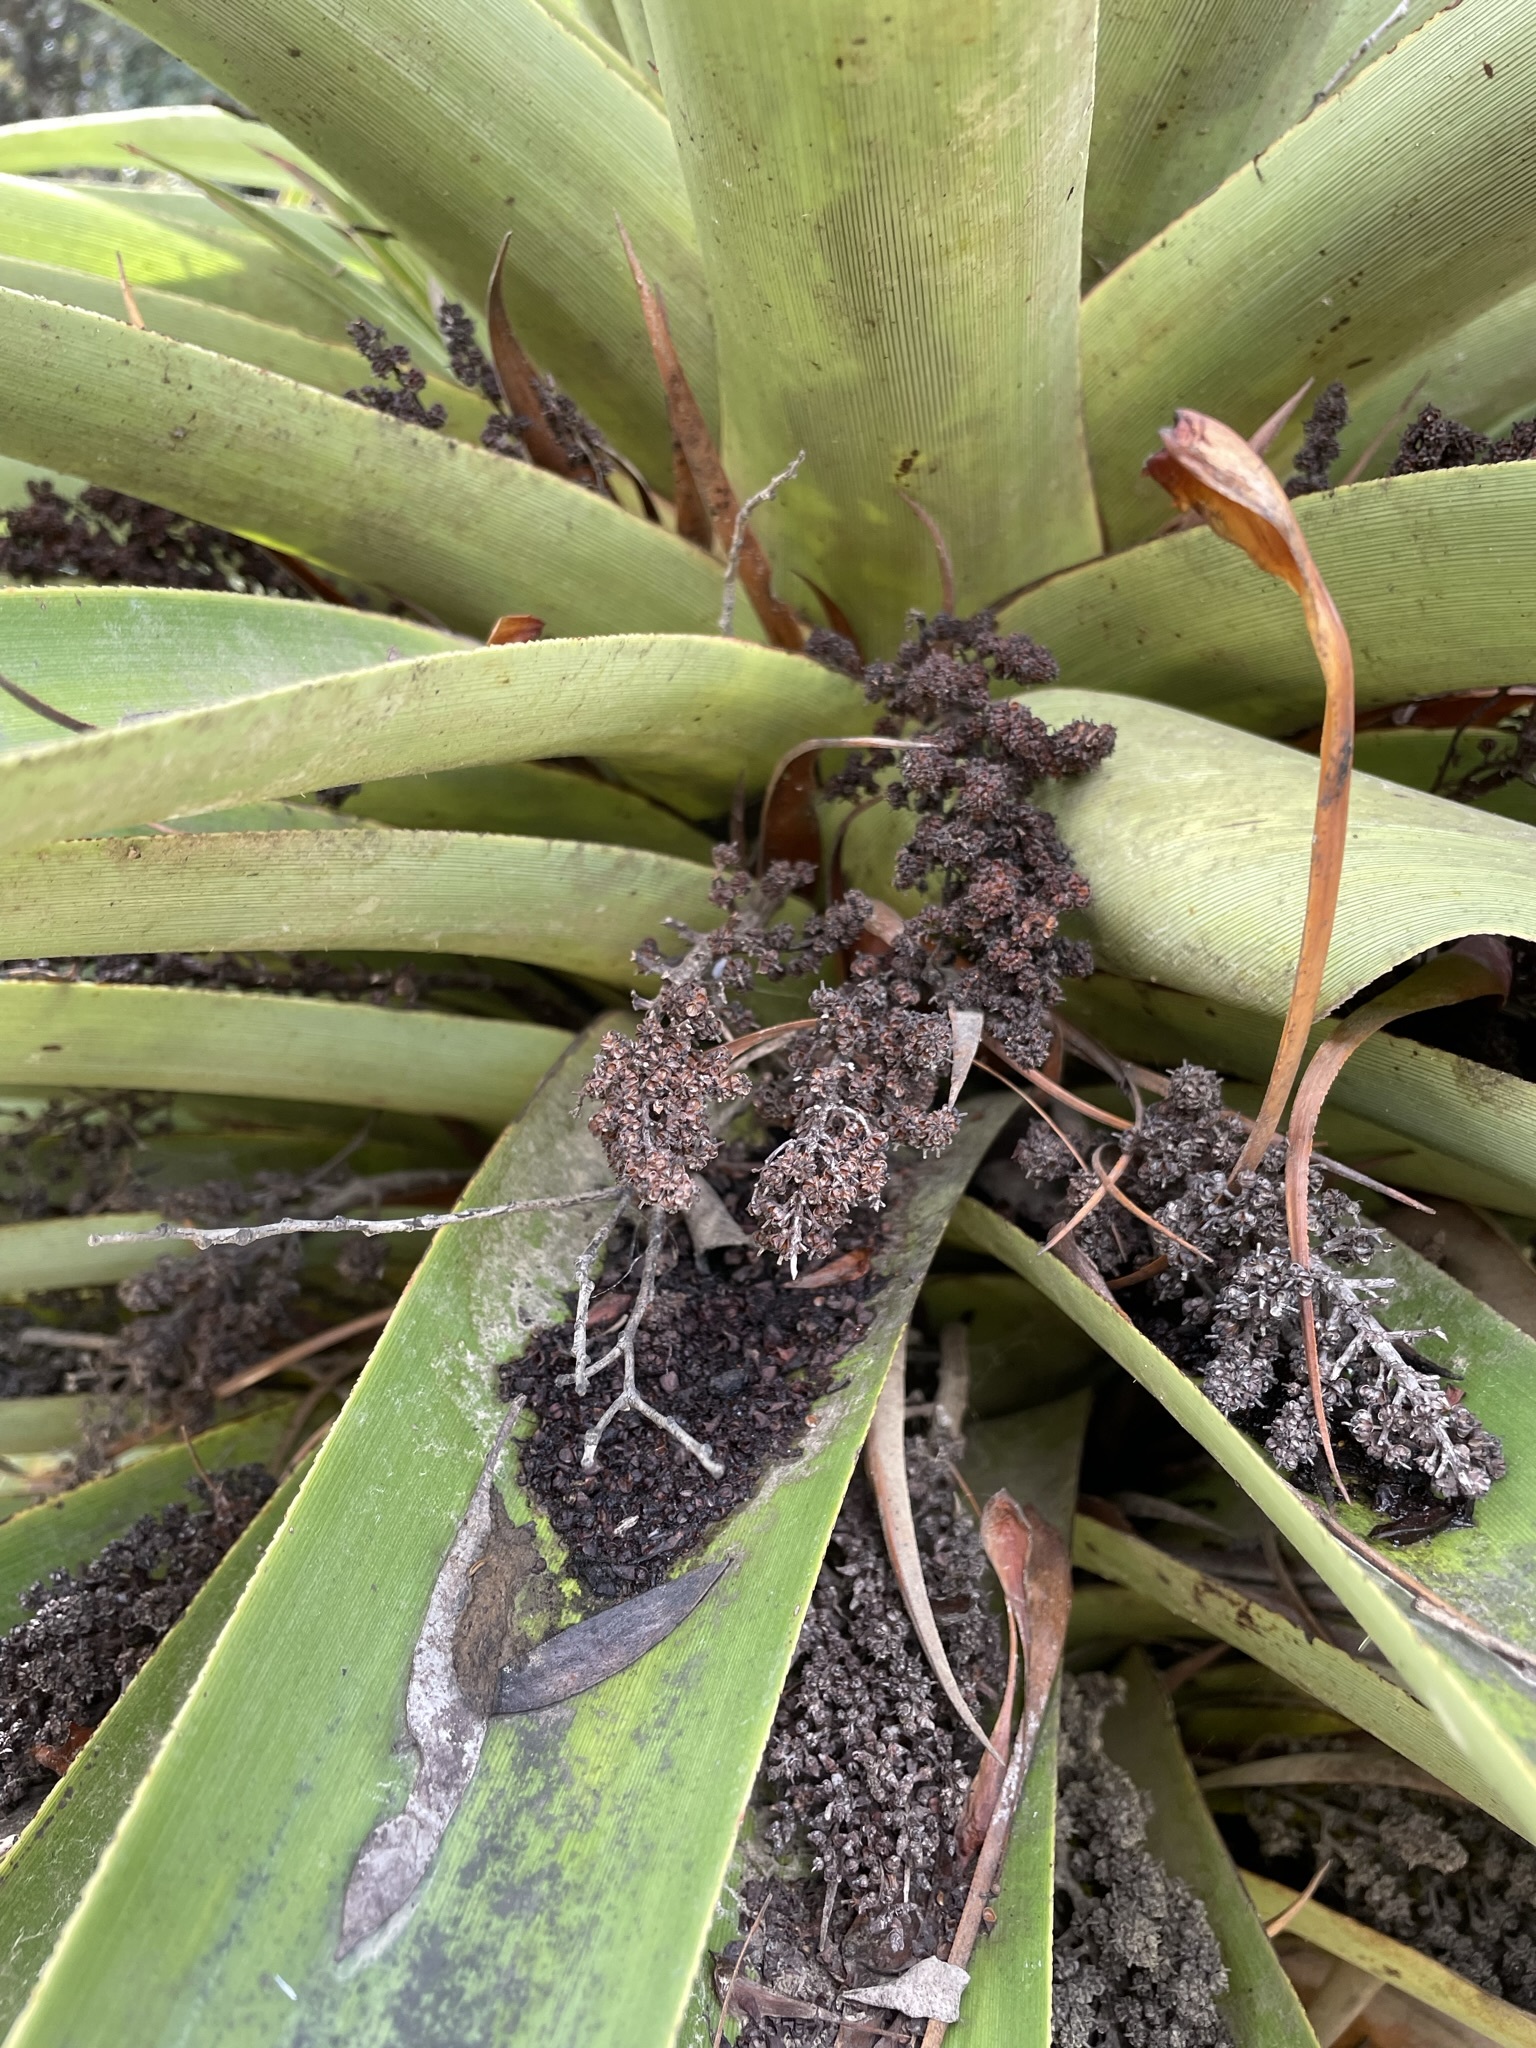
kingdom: Plantae
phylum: Tracheophyta
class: Magnoliopsida
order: Ericales
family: Ericaceae
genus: Dracophyllum
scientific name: Dracophyllum pandanifolium
